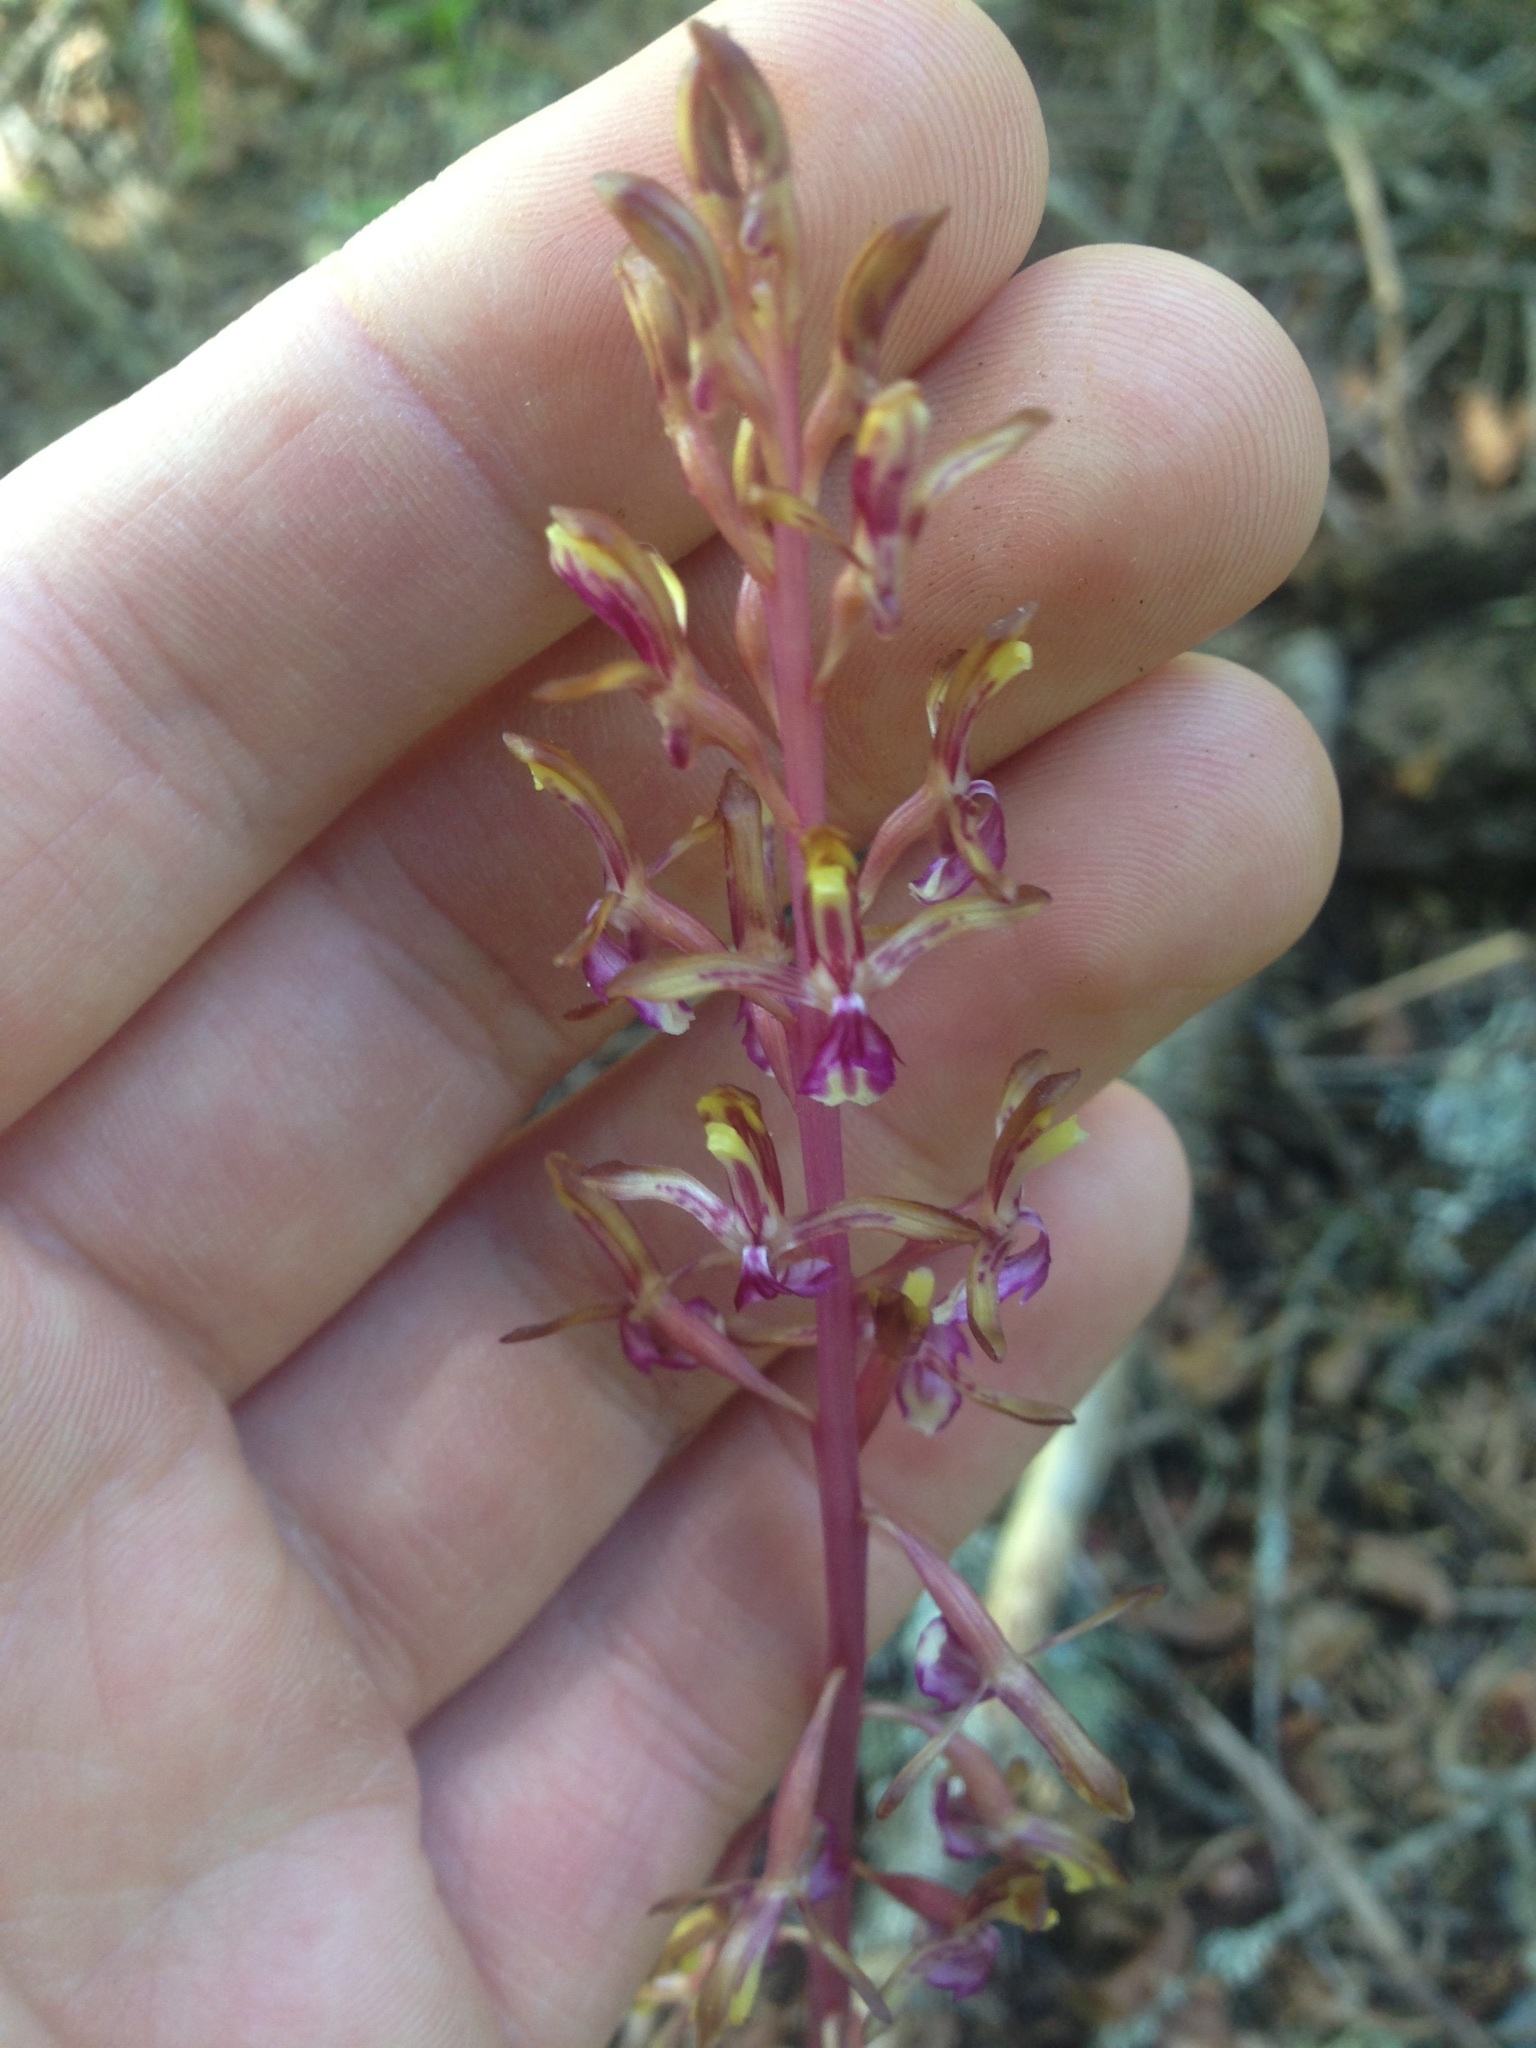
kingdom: Plantae
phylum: Tracheophyta
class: Liliopsida
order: Asparagales
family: Orchidaceae
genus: Corallorhiza
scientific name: Corallorhiza mertensiana
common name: Pacific coralroot
